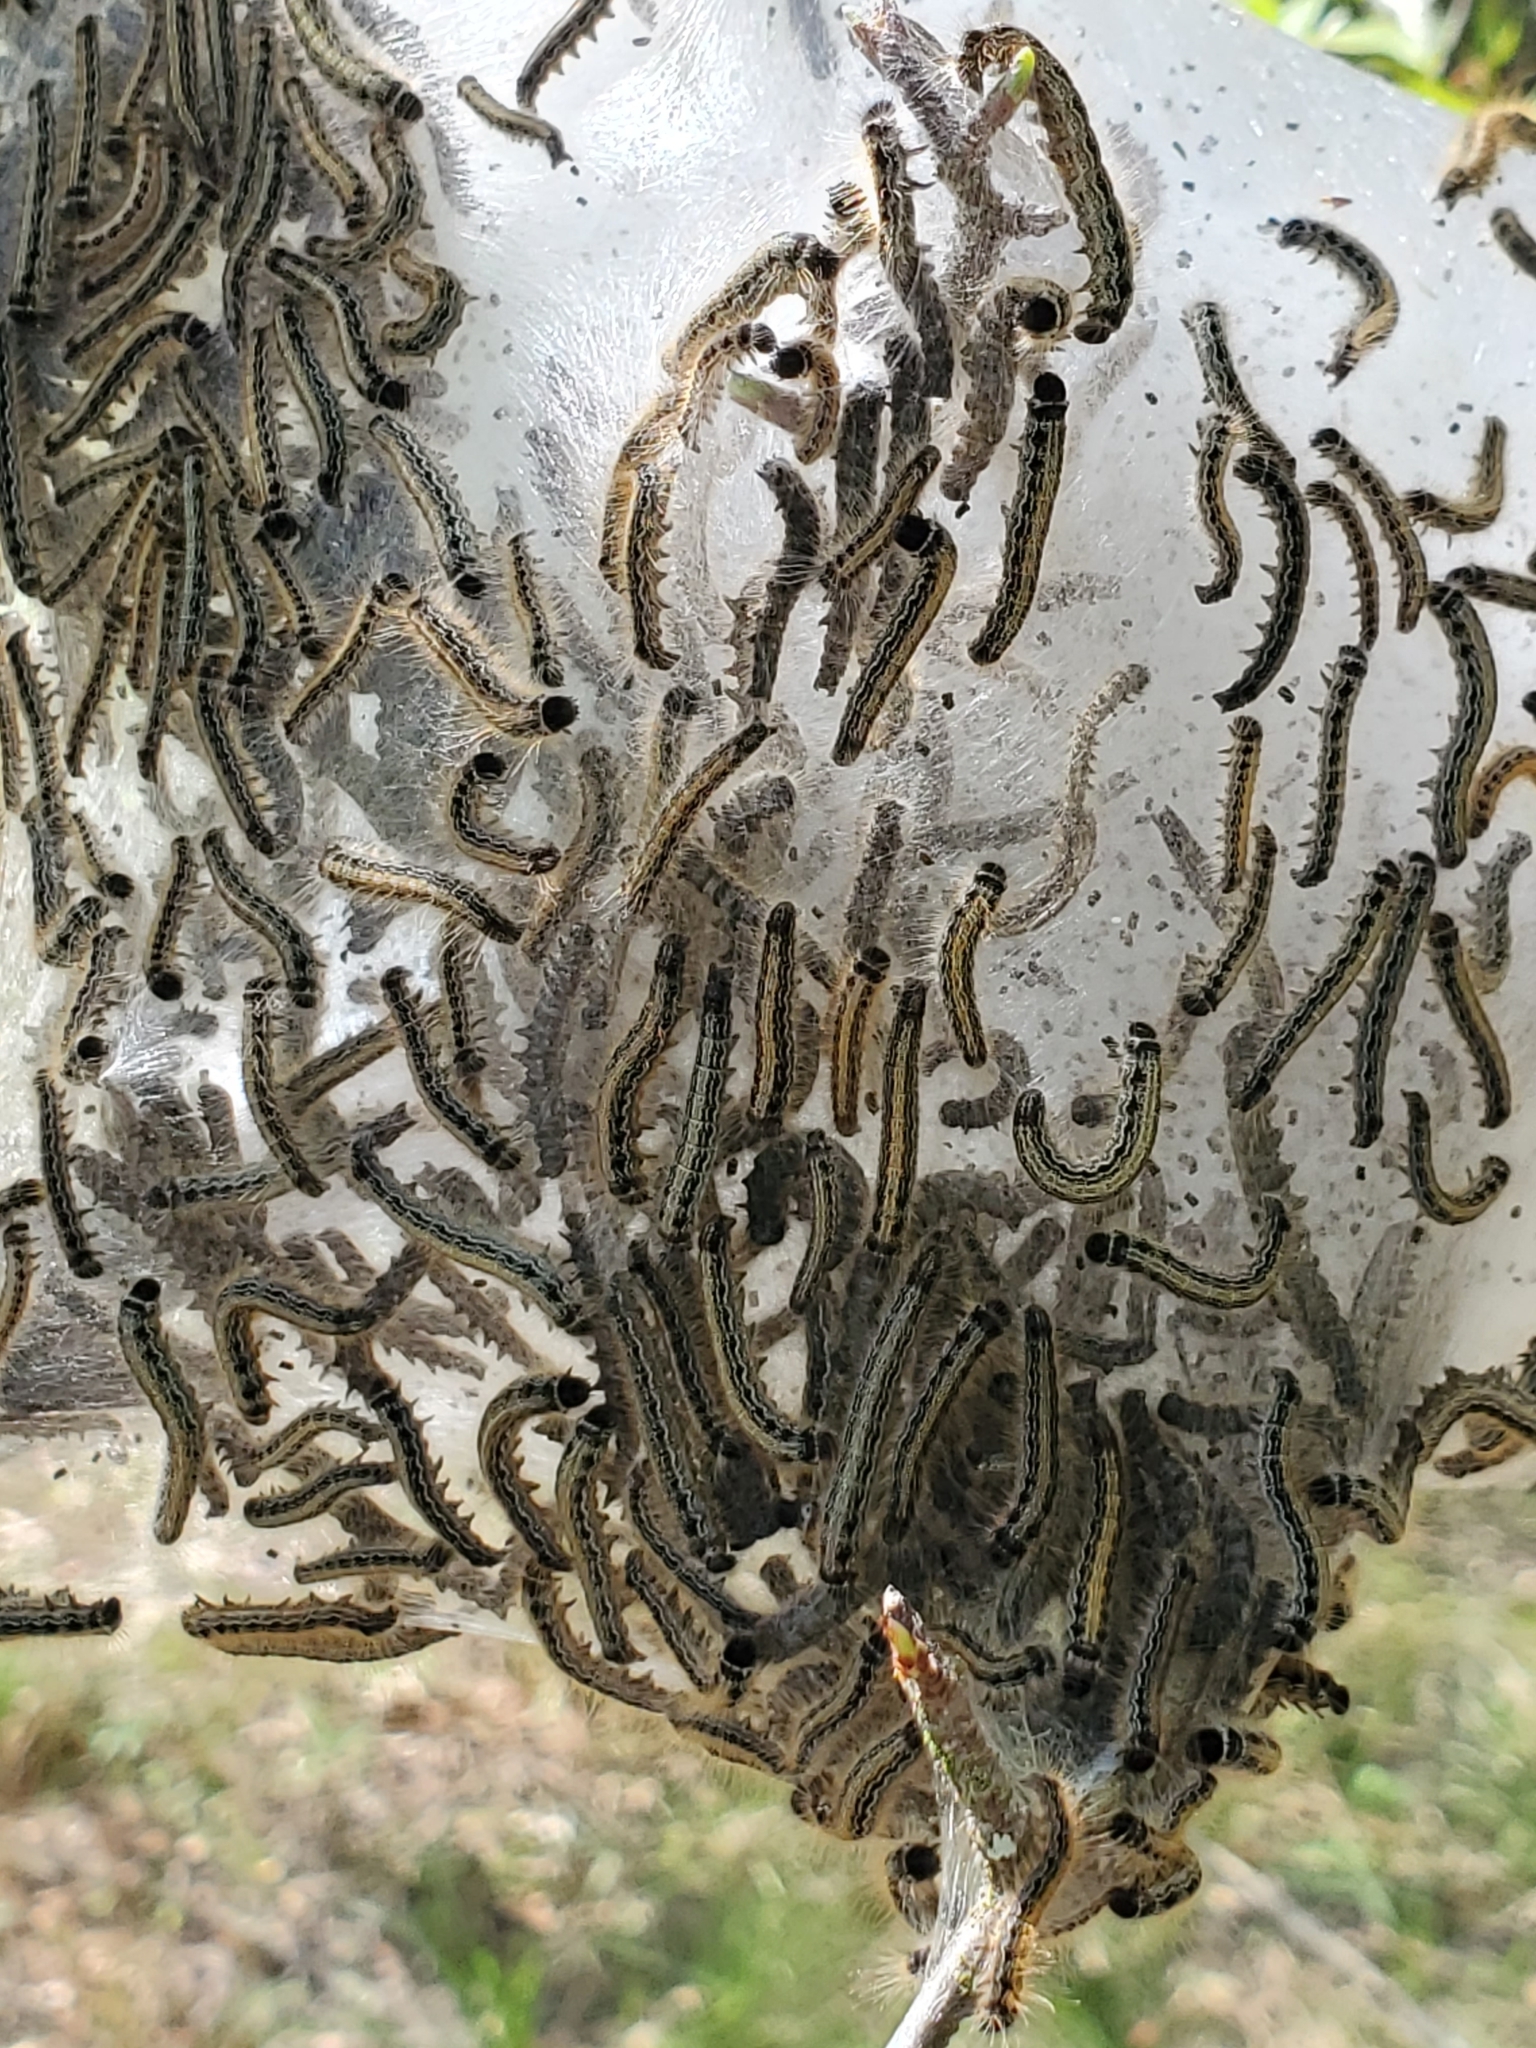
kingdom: Animalia
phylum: Arthropoda
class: Insecta
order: Lepidoptera
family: Lasiocampidae
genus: Malacosoma
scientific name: Malacosoma americana
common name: Eastern tent caterpillar moth
